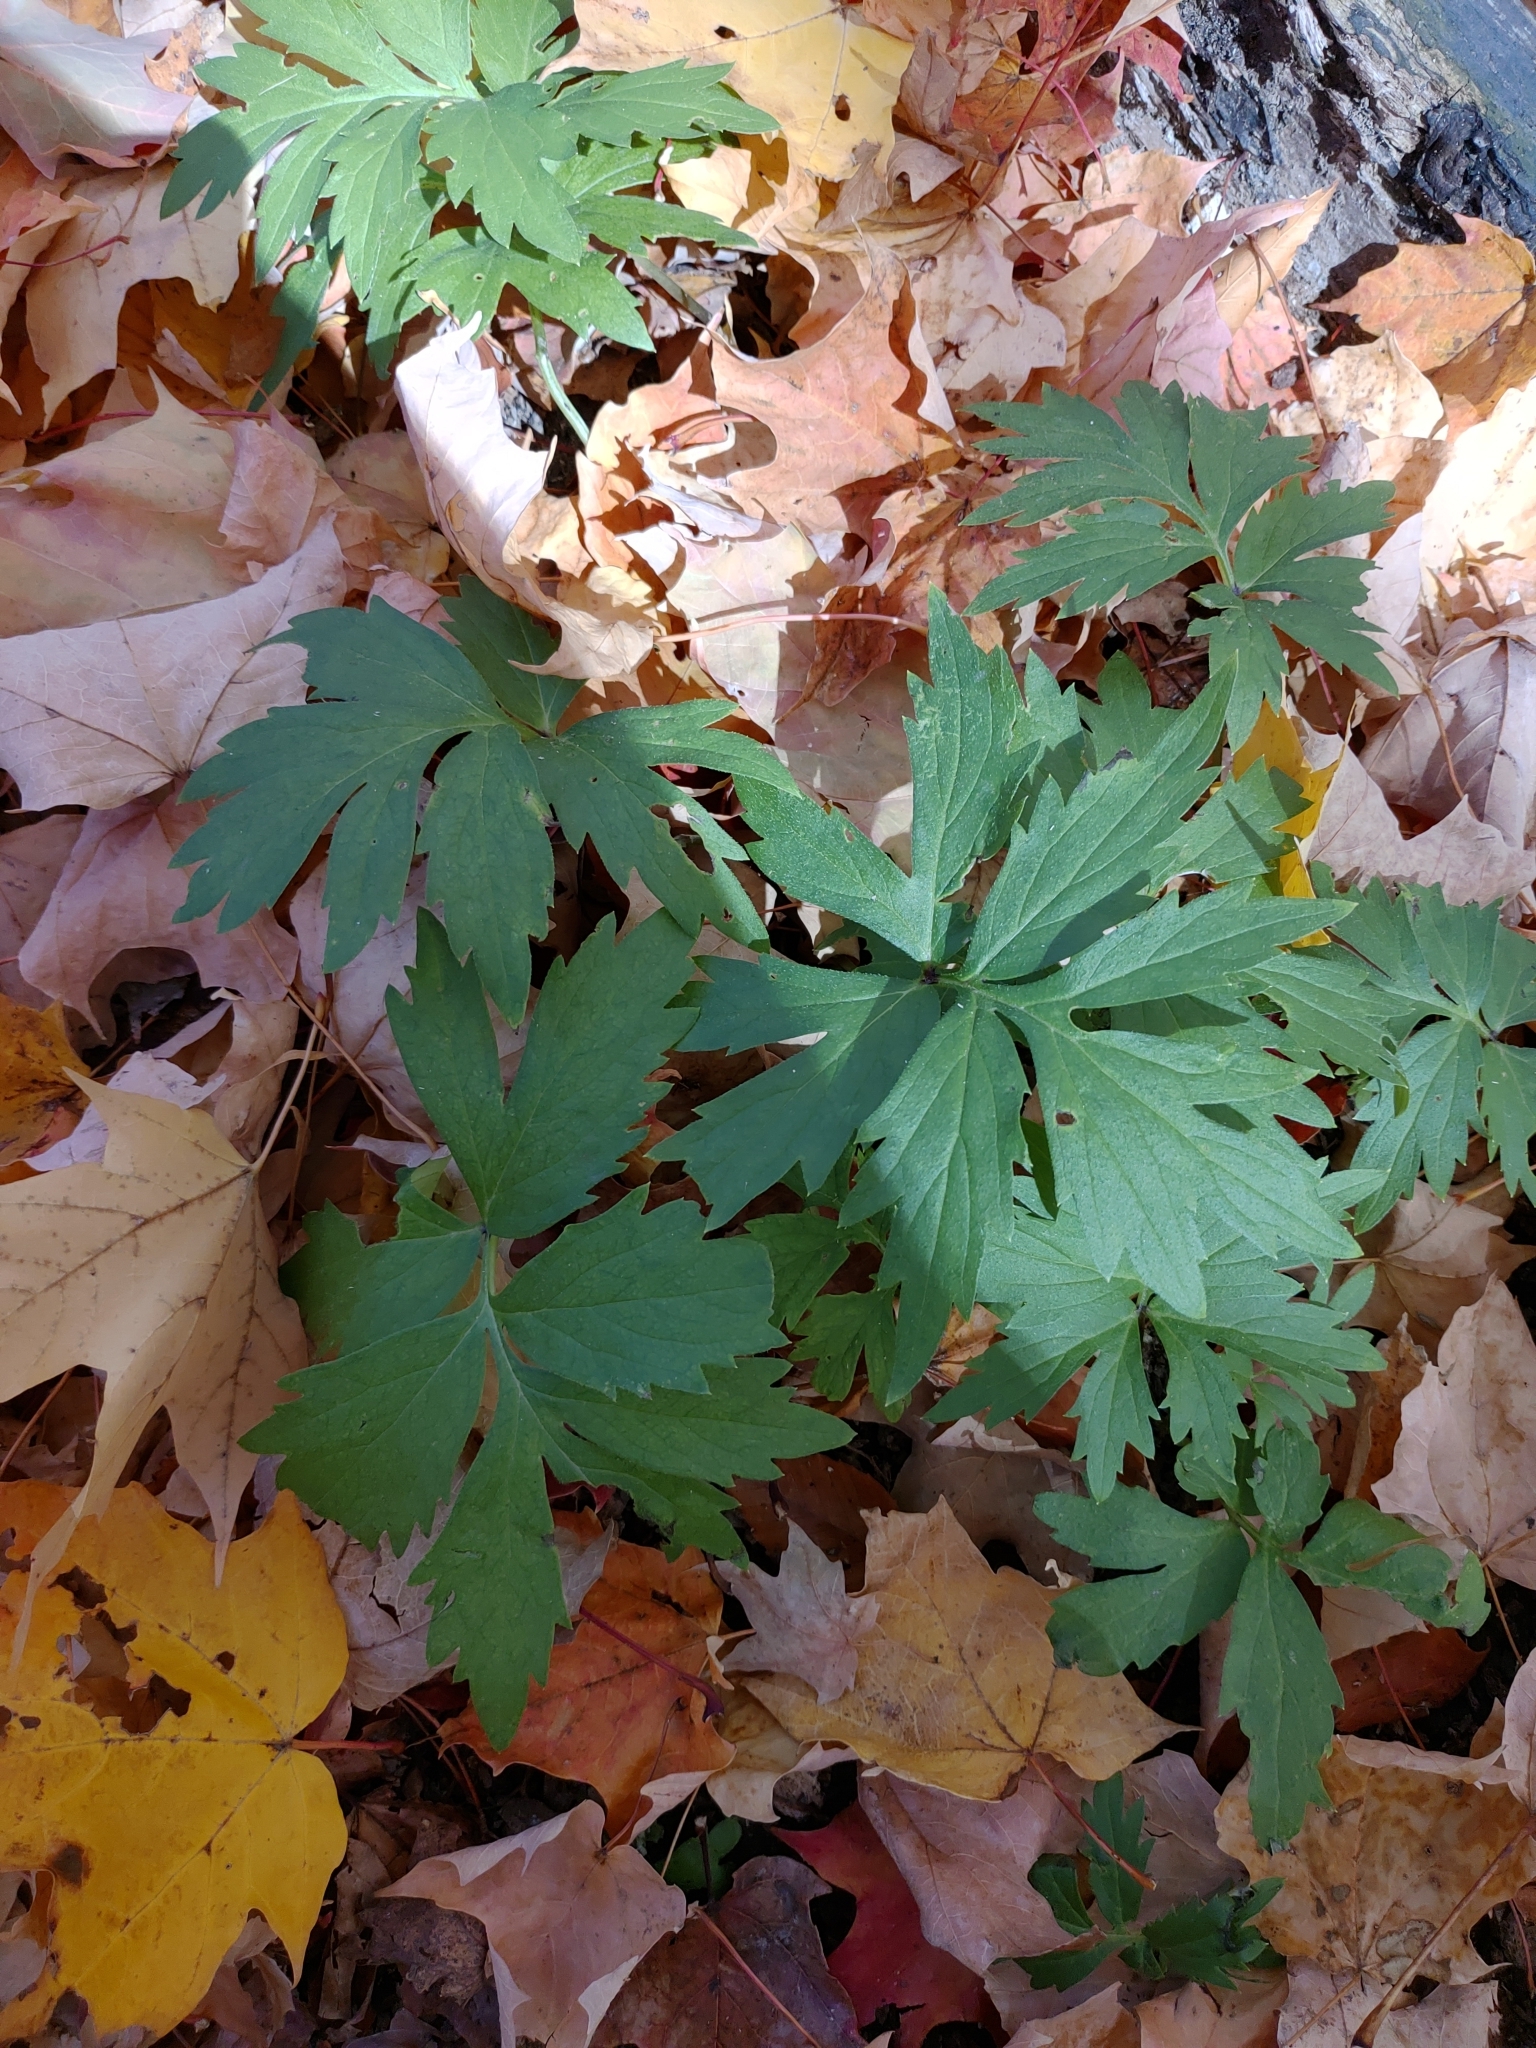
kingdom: Plantae
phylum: Tracheophyta
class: Magnoliopsida
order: Boraginales
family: Hydrophyllaceae
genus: Hydrophyllum
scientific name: Hydrophyllum virginianum
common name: Virginia waterleaf
